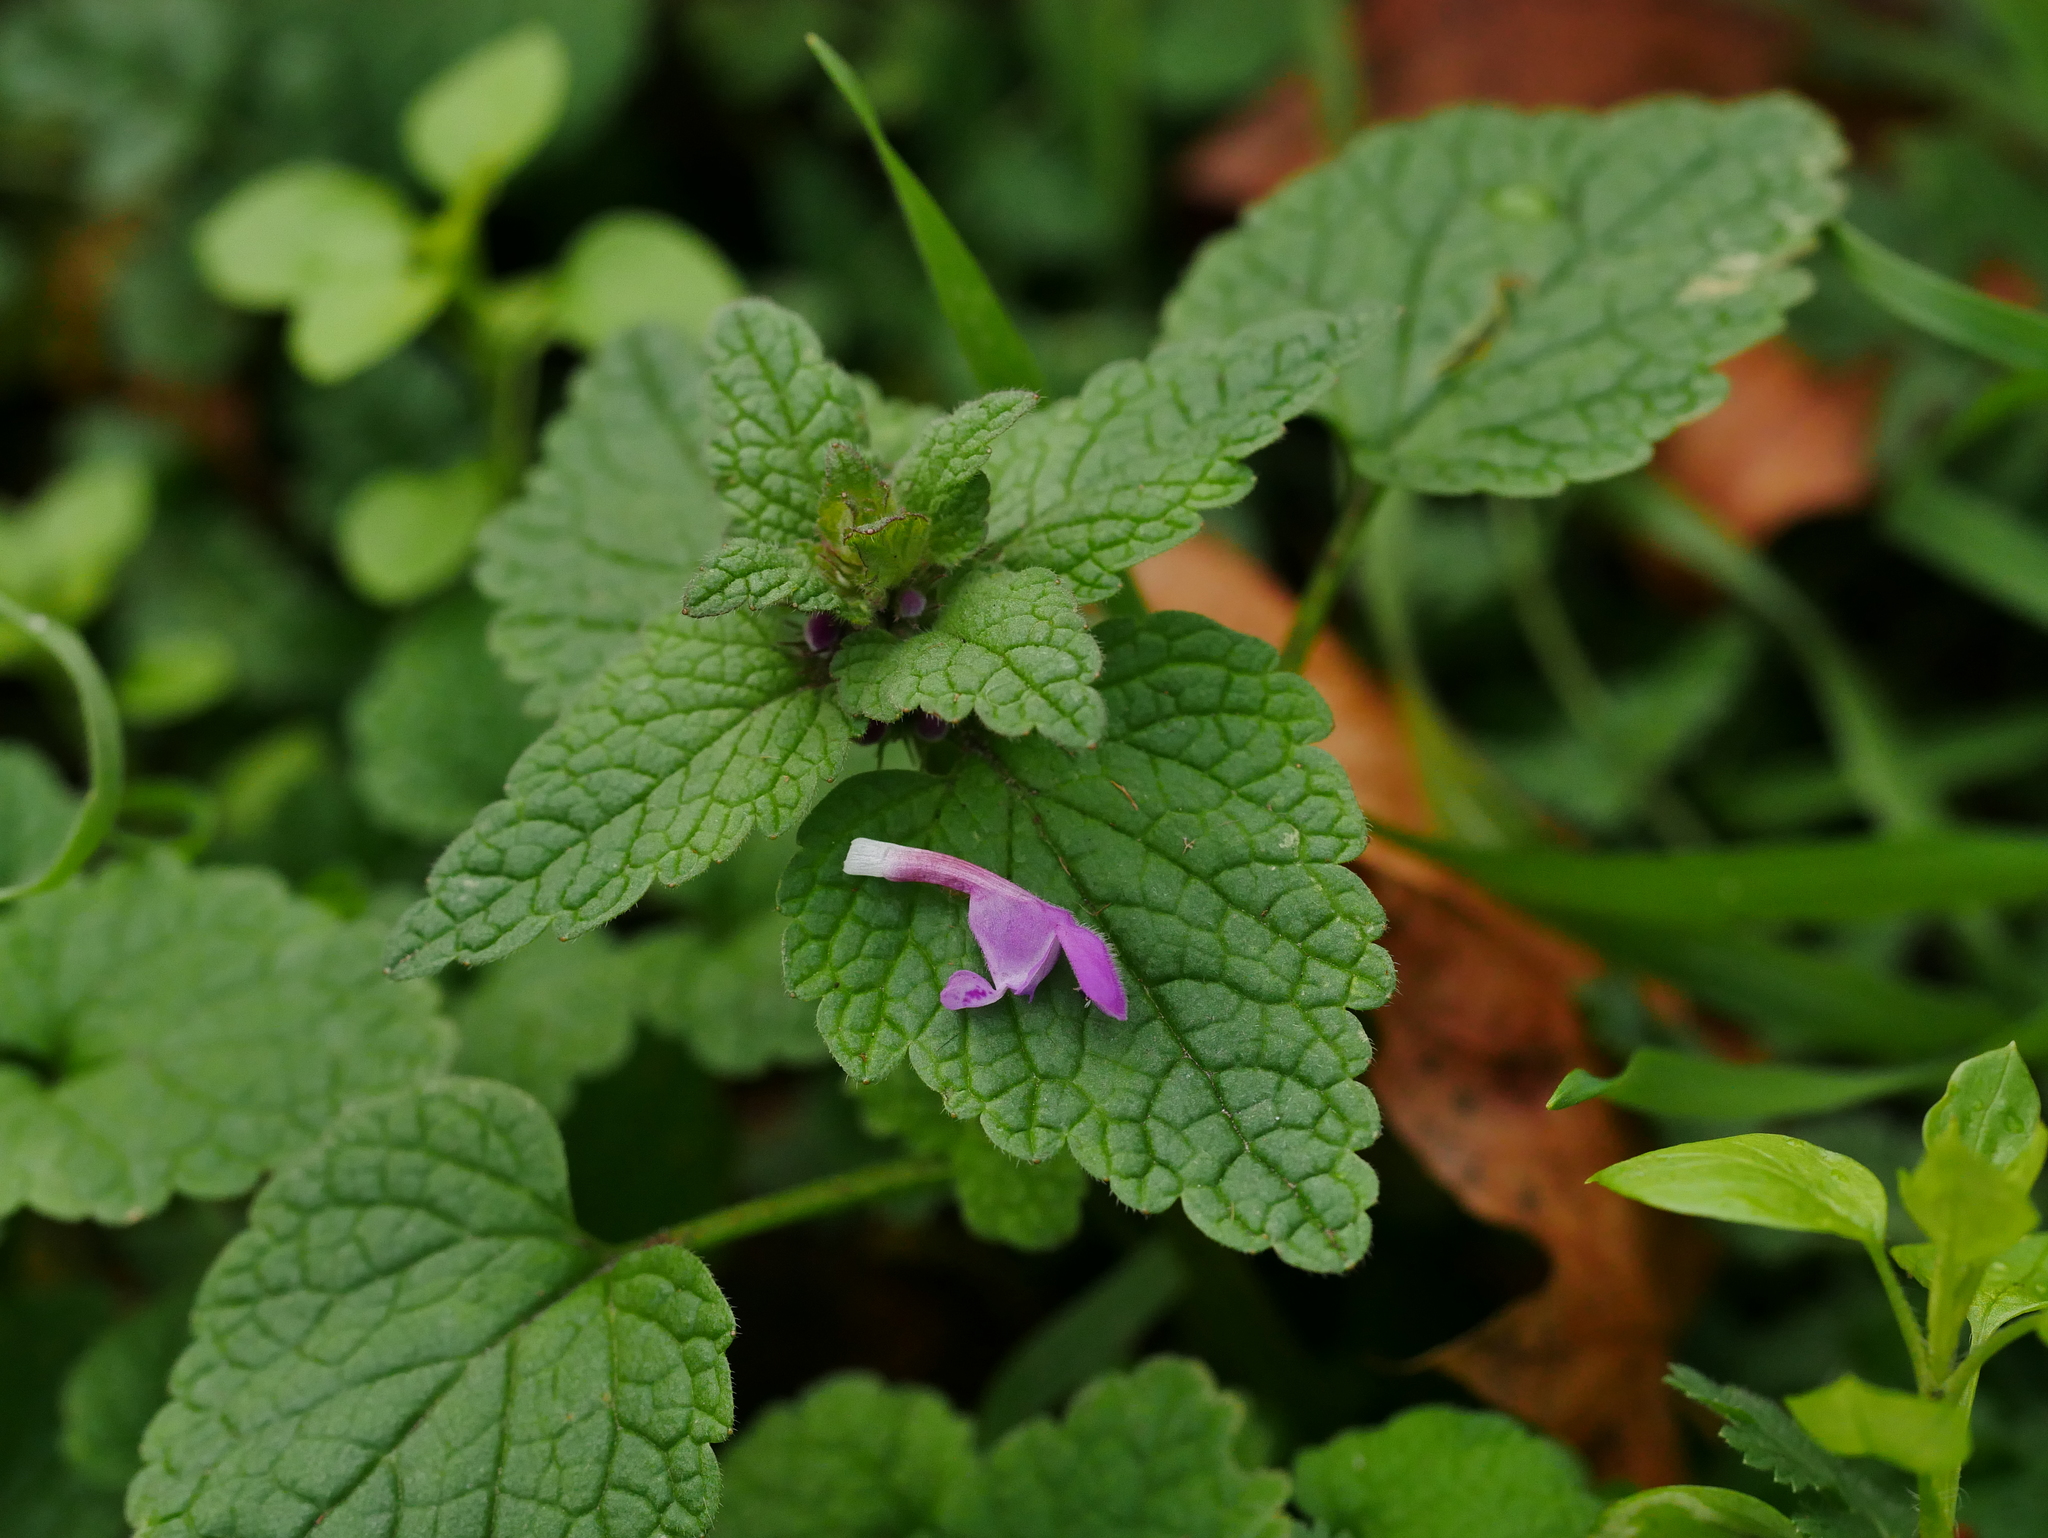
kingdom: Plantae
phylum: Tracheophyta
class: Magnoliopsida
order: Lamiales
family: Lamiaceae
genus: Lamium
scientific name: Lamium purpureum
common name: Red dead-nettle
